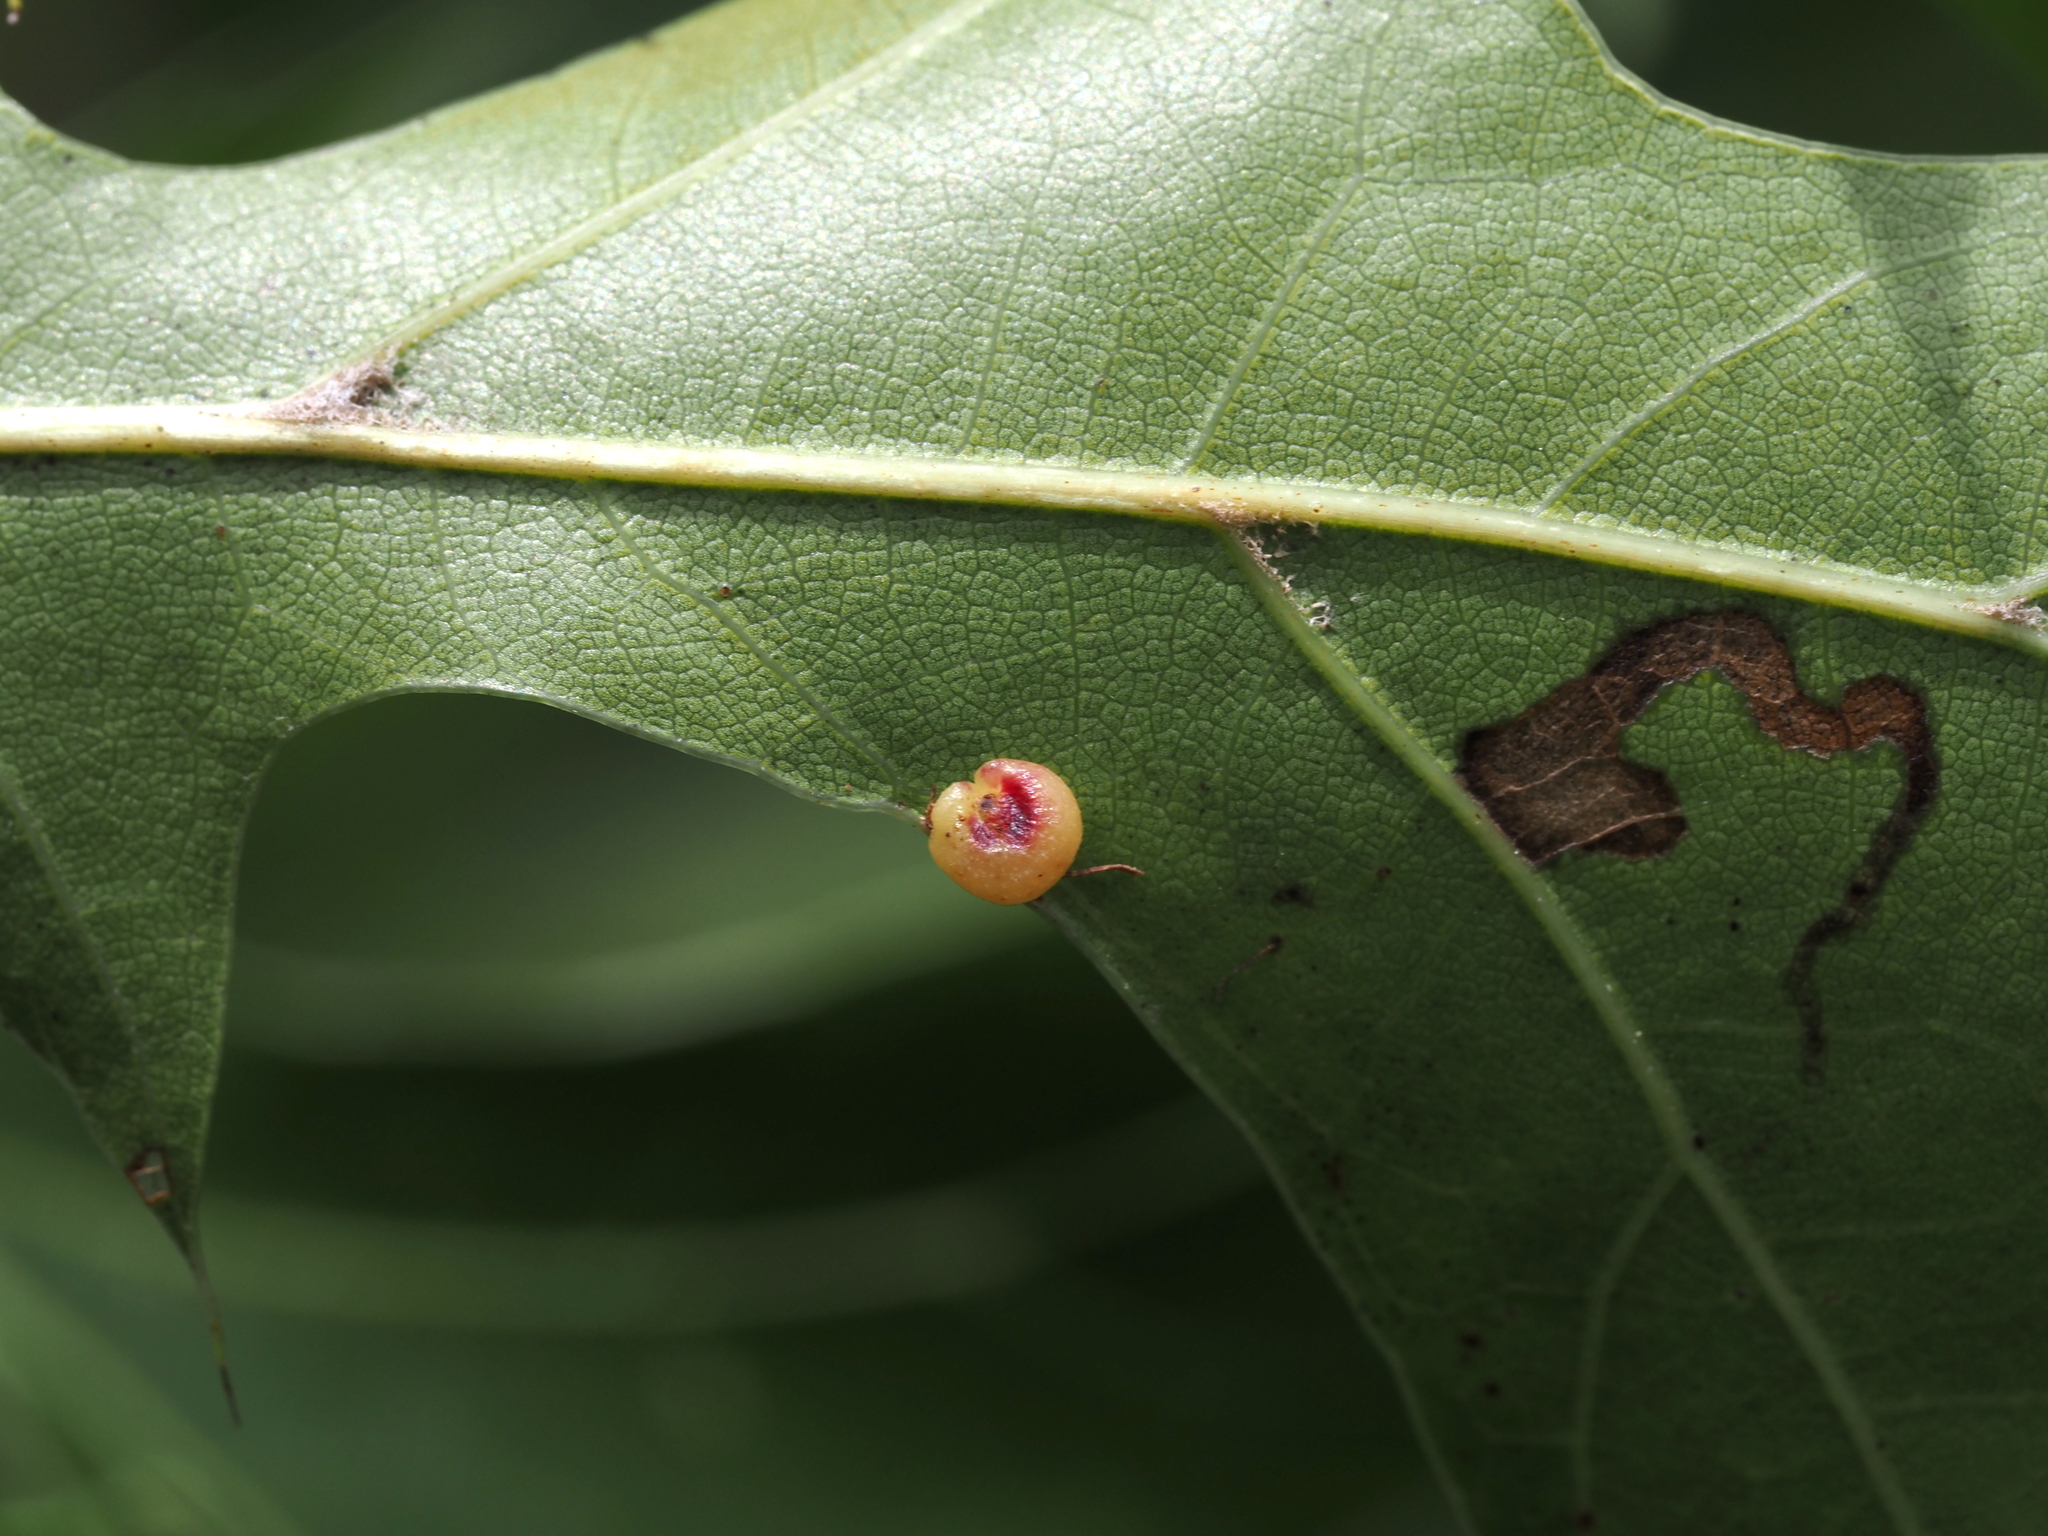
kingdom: Animalia
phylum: Arthropoda
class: Insecta
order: Hymenoptera
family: Cynipidae
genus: Dryocosmus
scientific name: Dryocosmus
